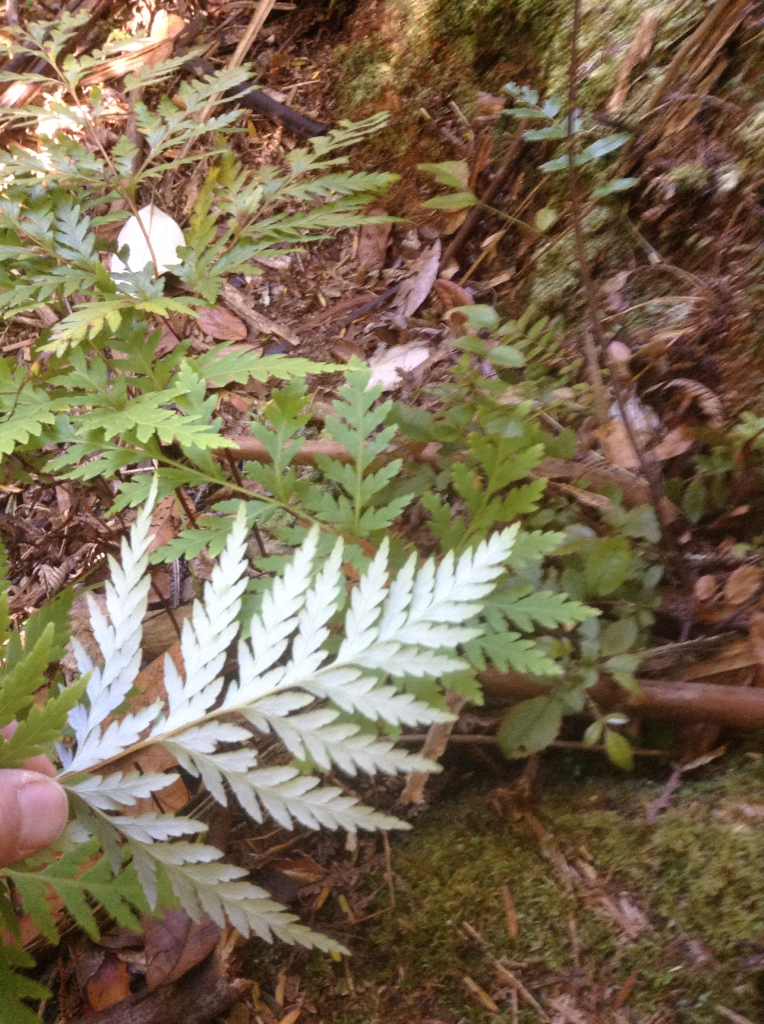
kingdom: Plantae
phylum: Tracheophyta
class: Polypodiopsida
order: Cyatheales
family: Loxsomataceae
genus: Loxsoma
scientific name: Loxsoma cunninghamii
